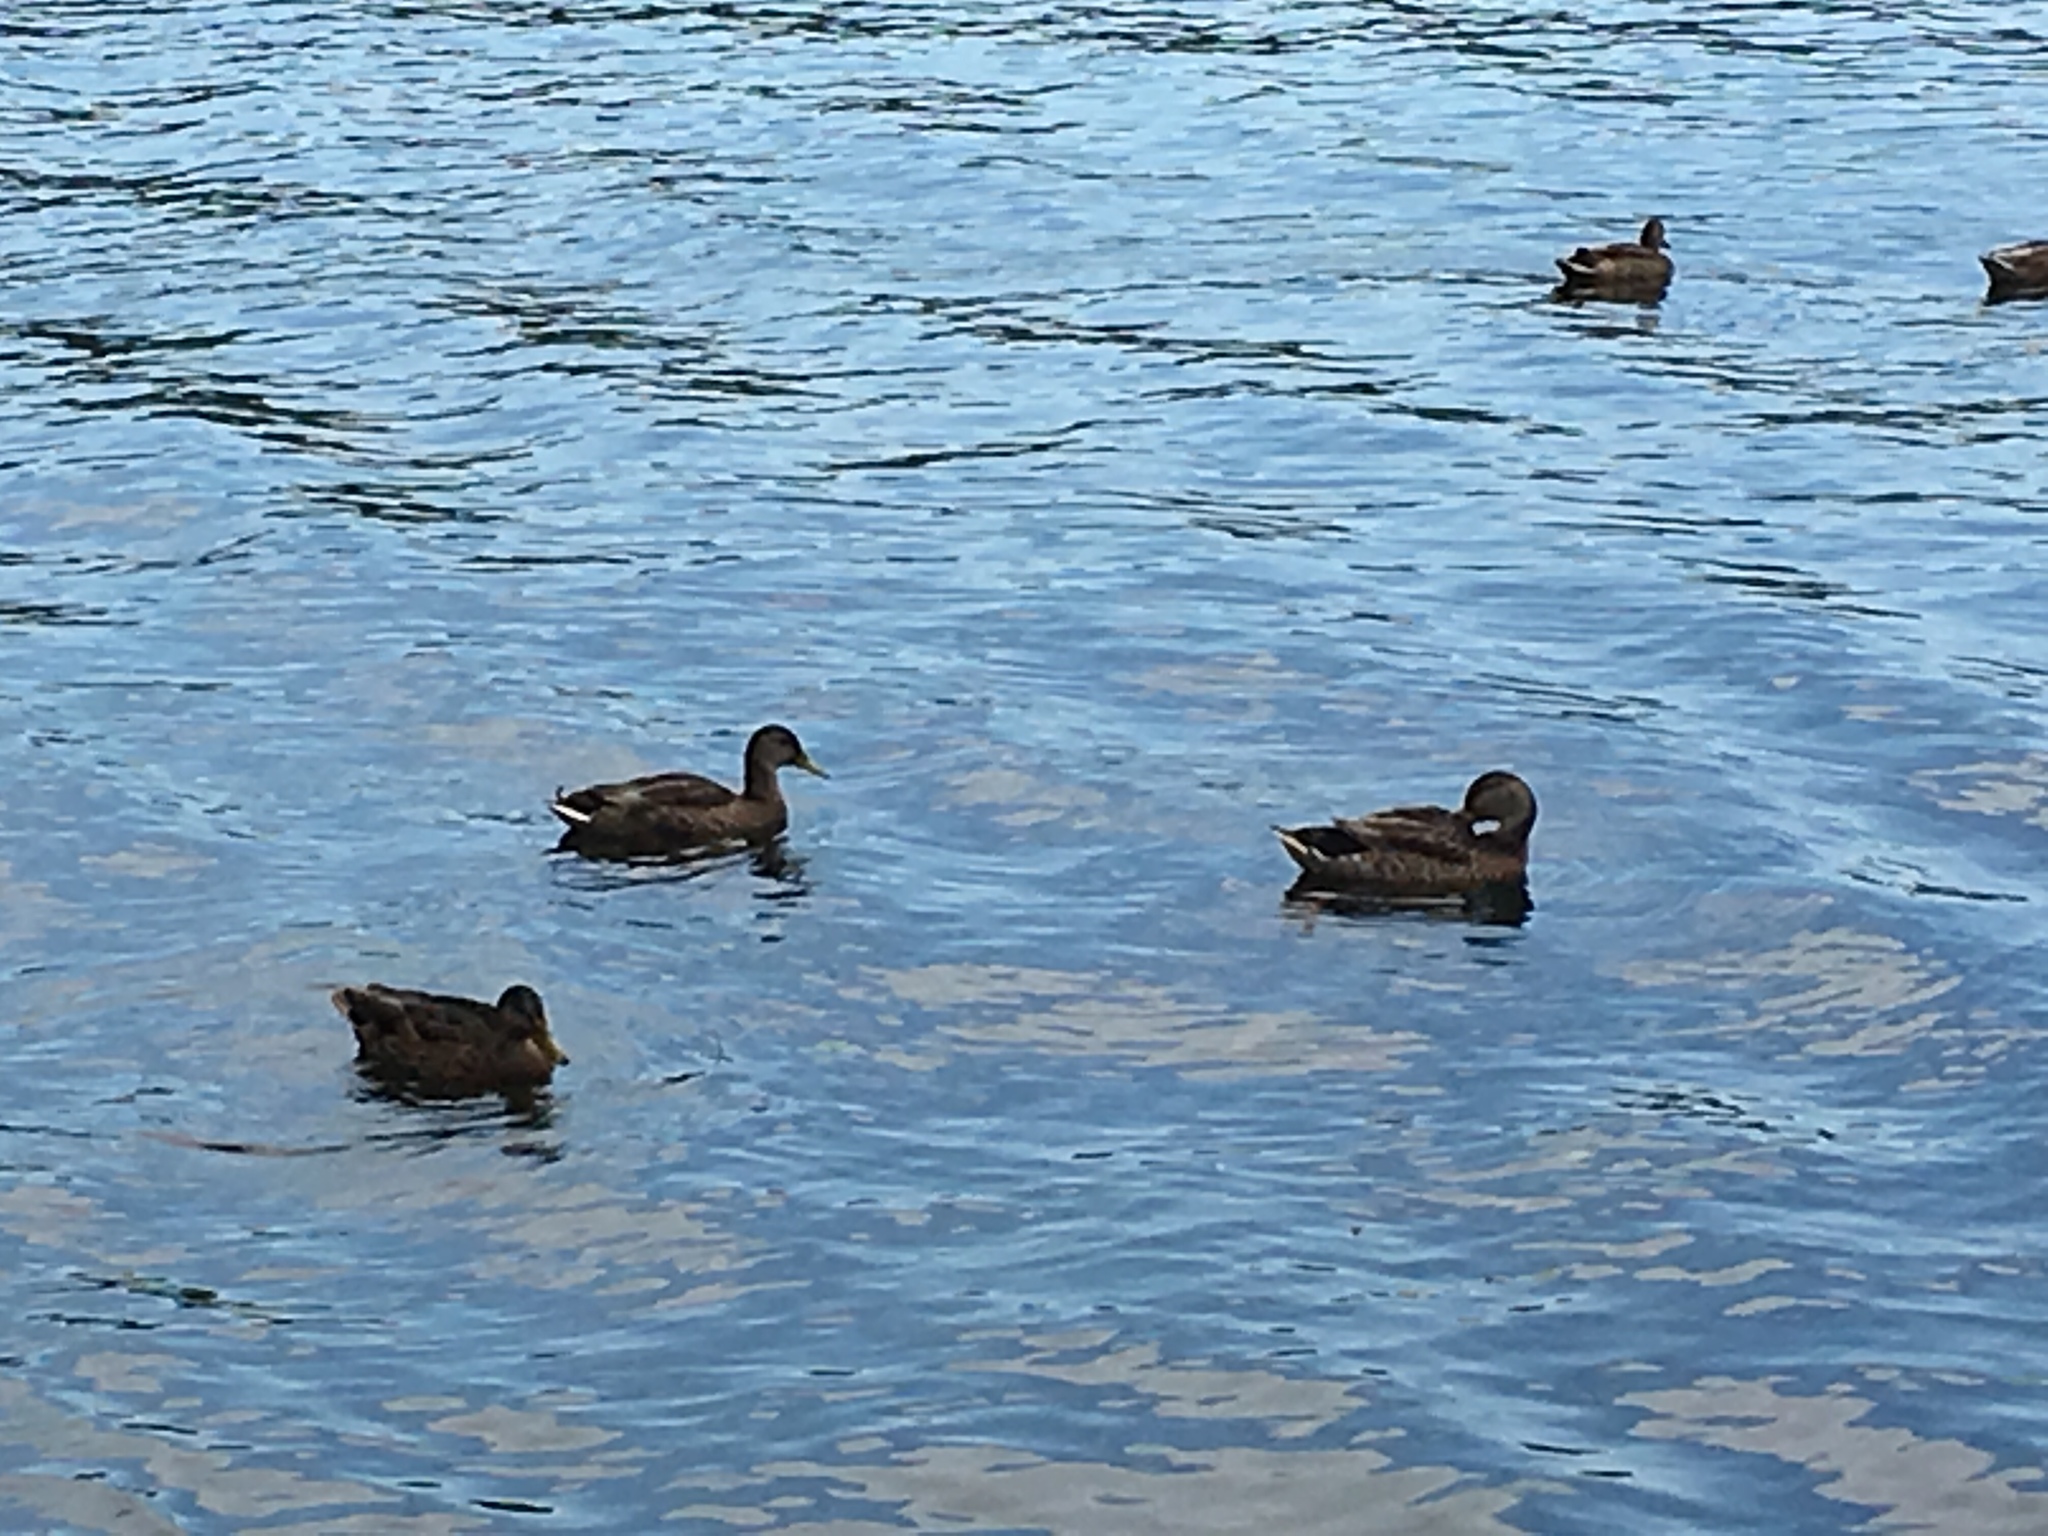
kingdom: Animalia
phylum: Chordata
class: Aves
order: Anseriformes
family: Anatidae
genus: Anas
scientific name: Anas platyrhynchos
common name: Mallard
